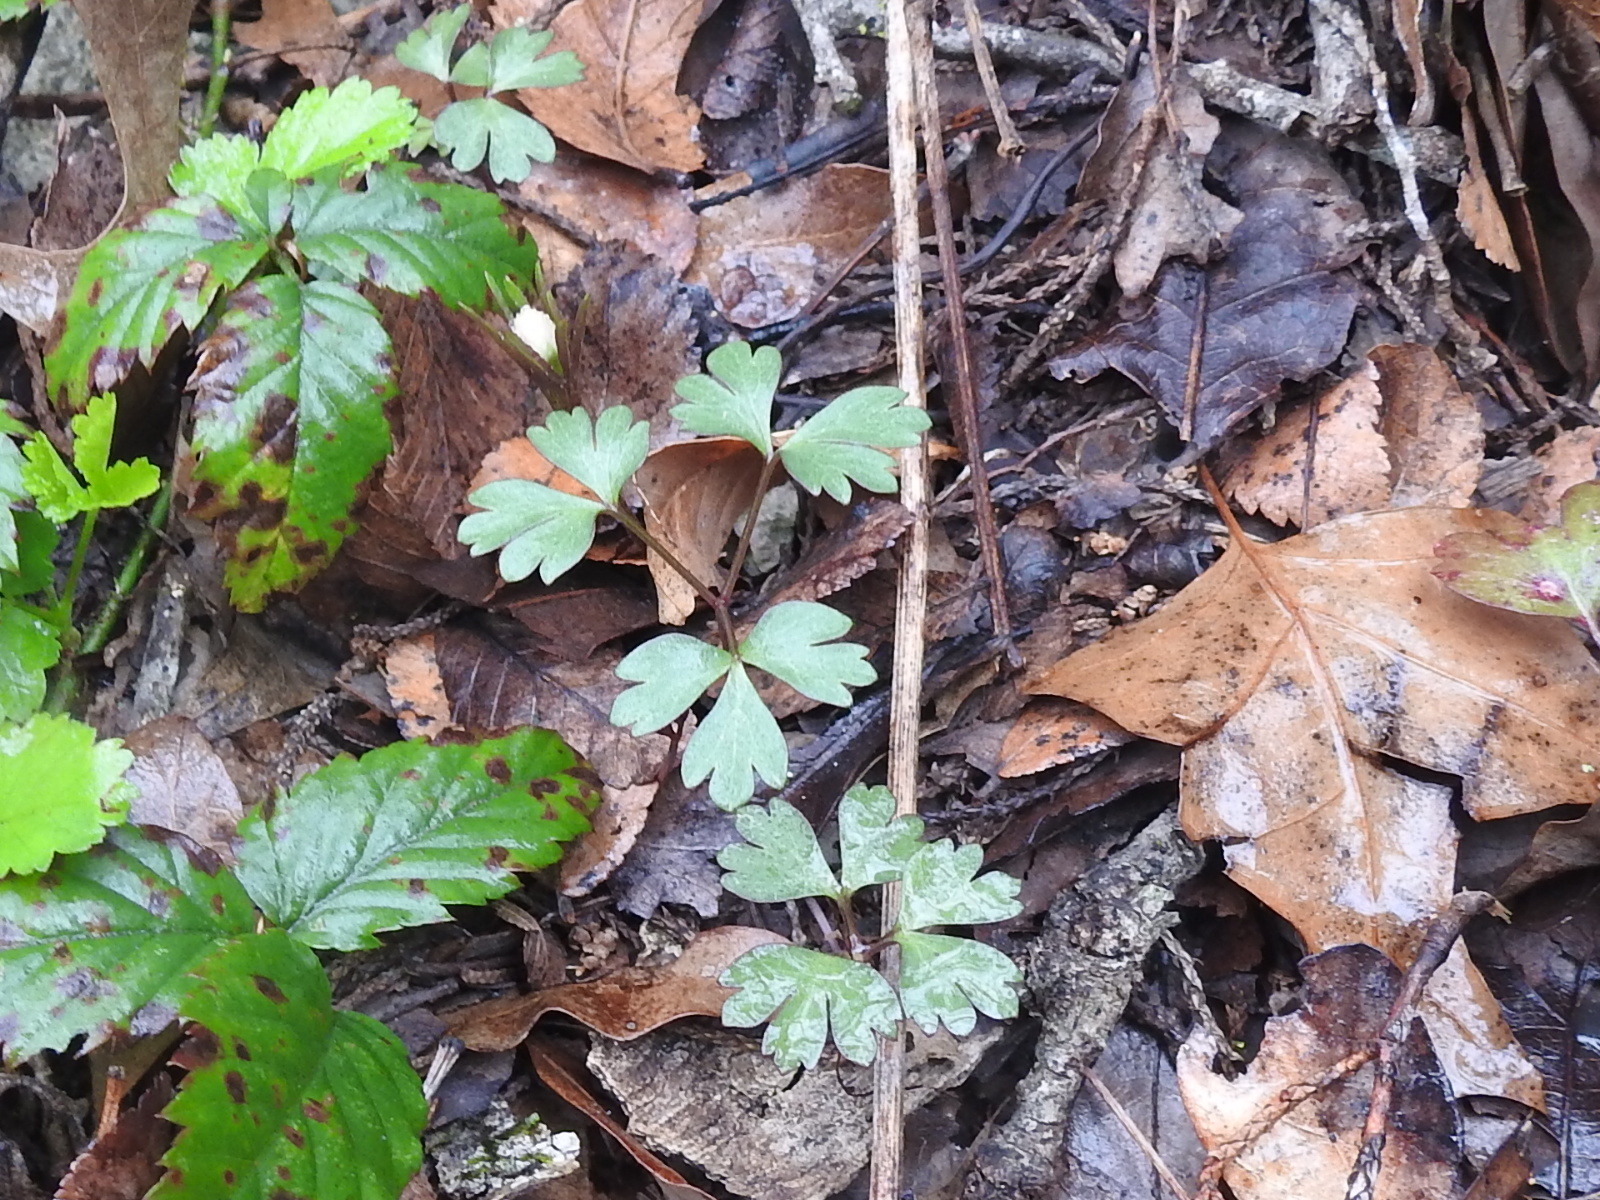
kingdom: Plantae
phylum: Tracheophyta
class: Magnoliopsida
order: Ranunculales
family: Ranunculaceae
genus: Anemone
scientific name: Anemone edwardsiana
